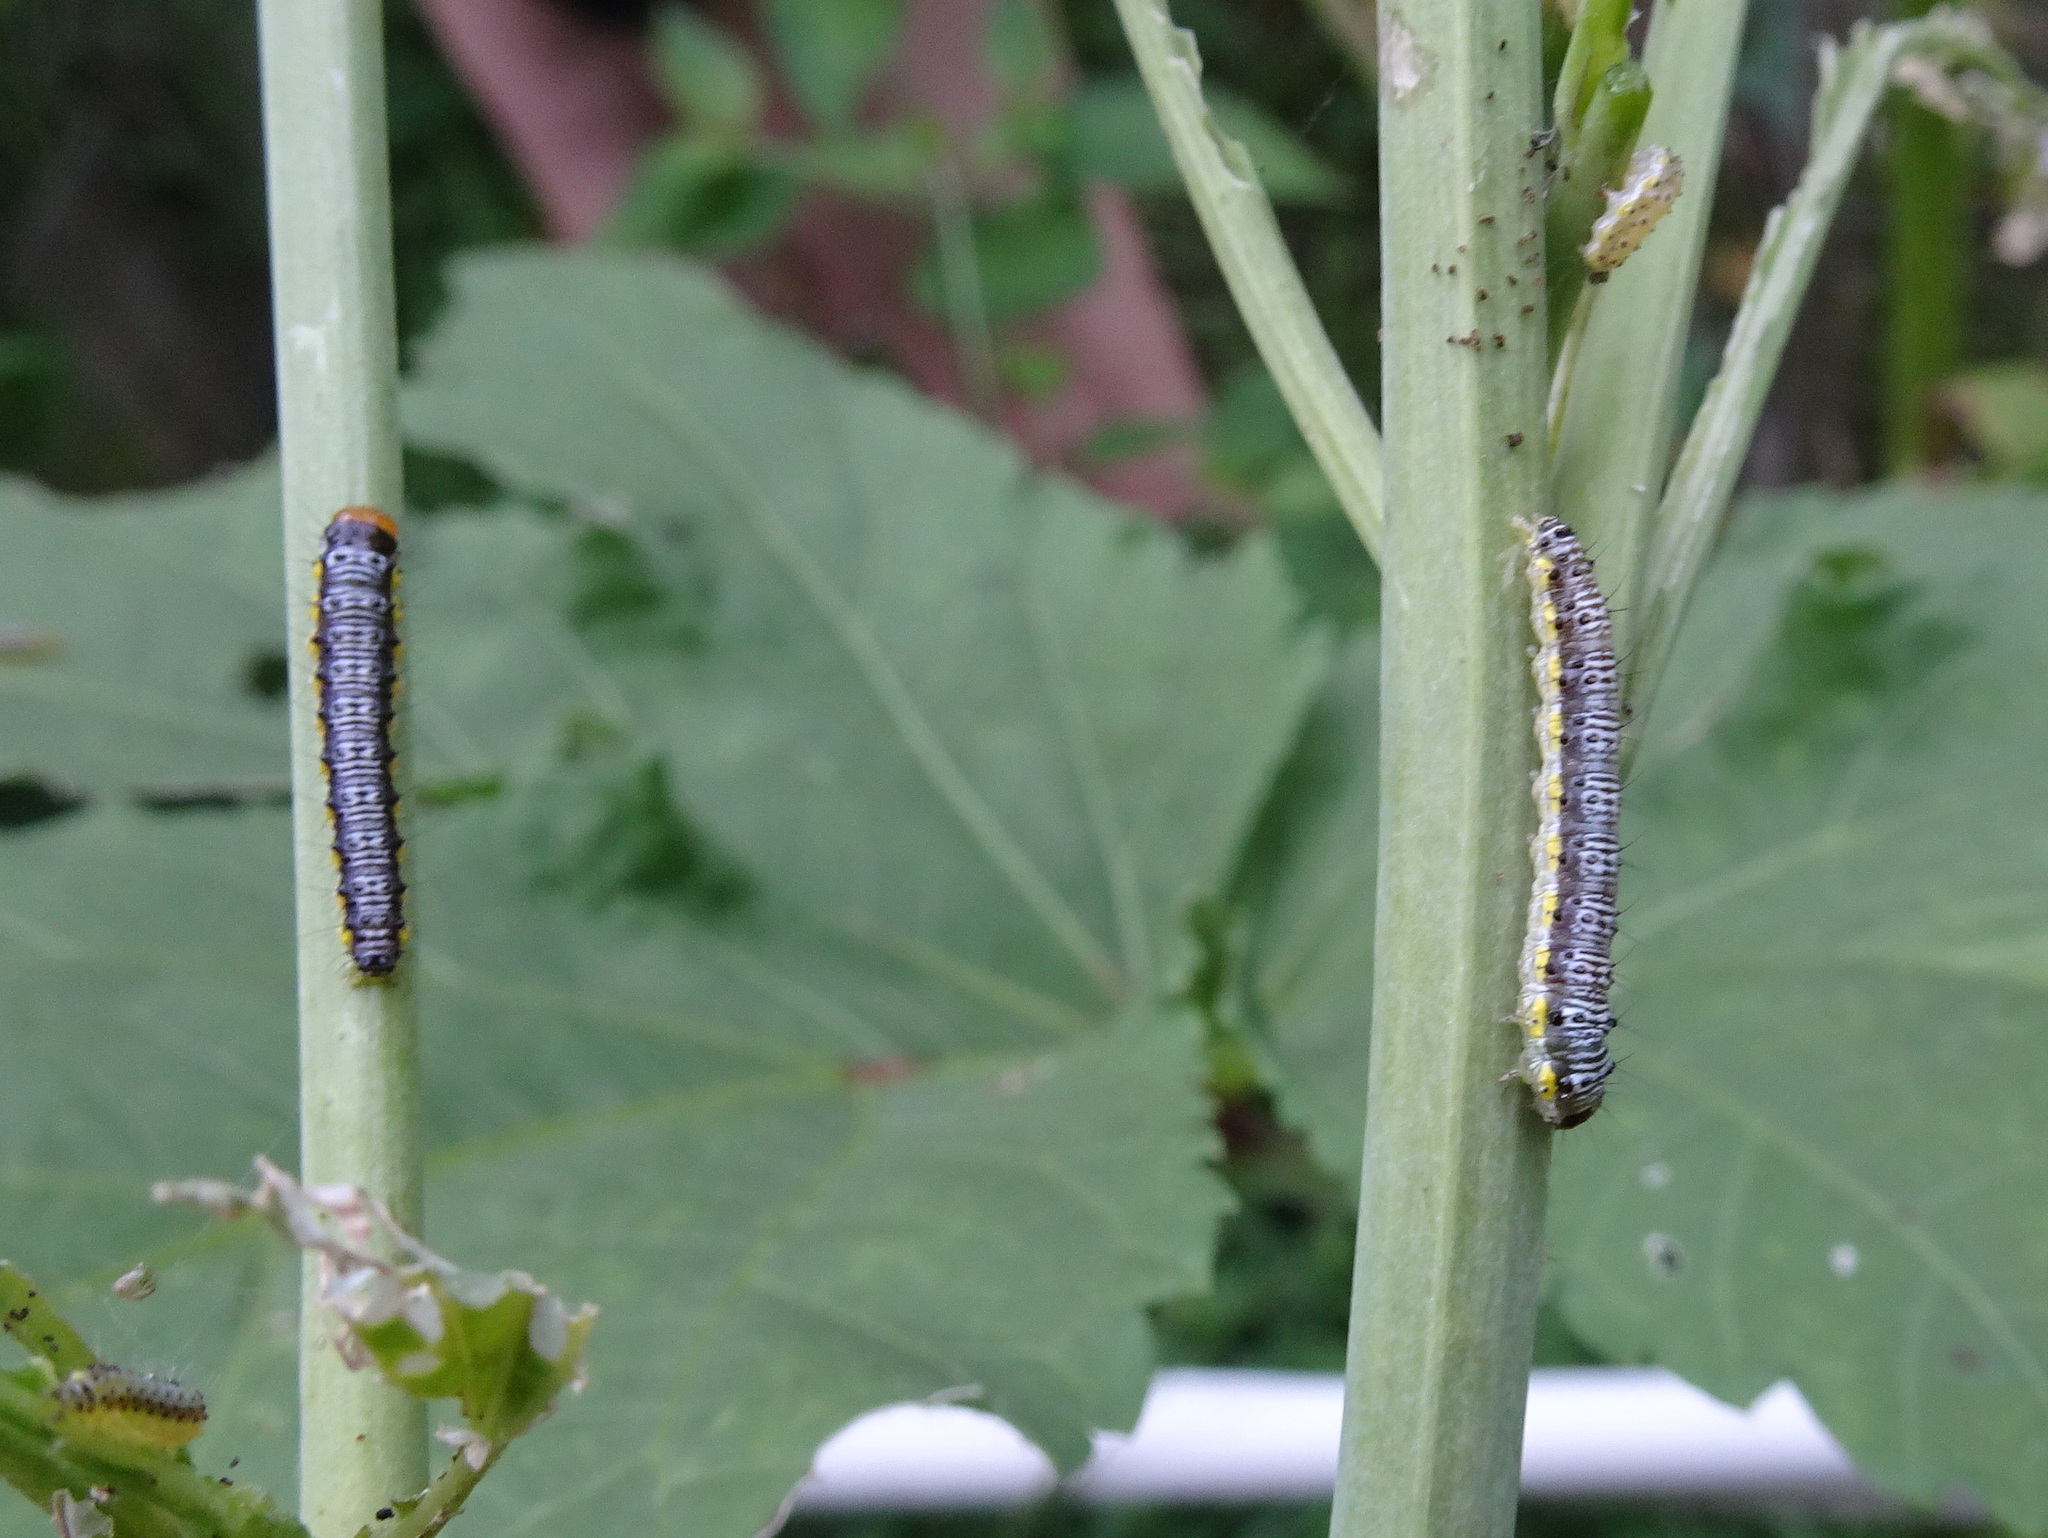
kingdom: Animalia
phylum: Arthropoda
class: Insecta
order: Lepidoptera
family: Crambidae
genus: Evergestis
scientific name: Evergestis rimosalis
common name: Cross-striped cabbageworm moth
